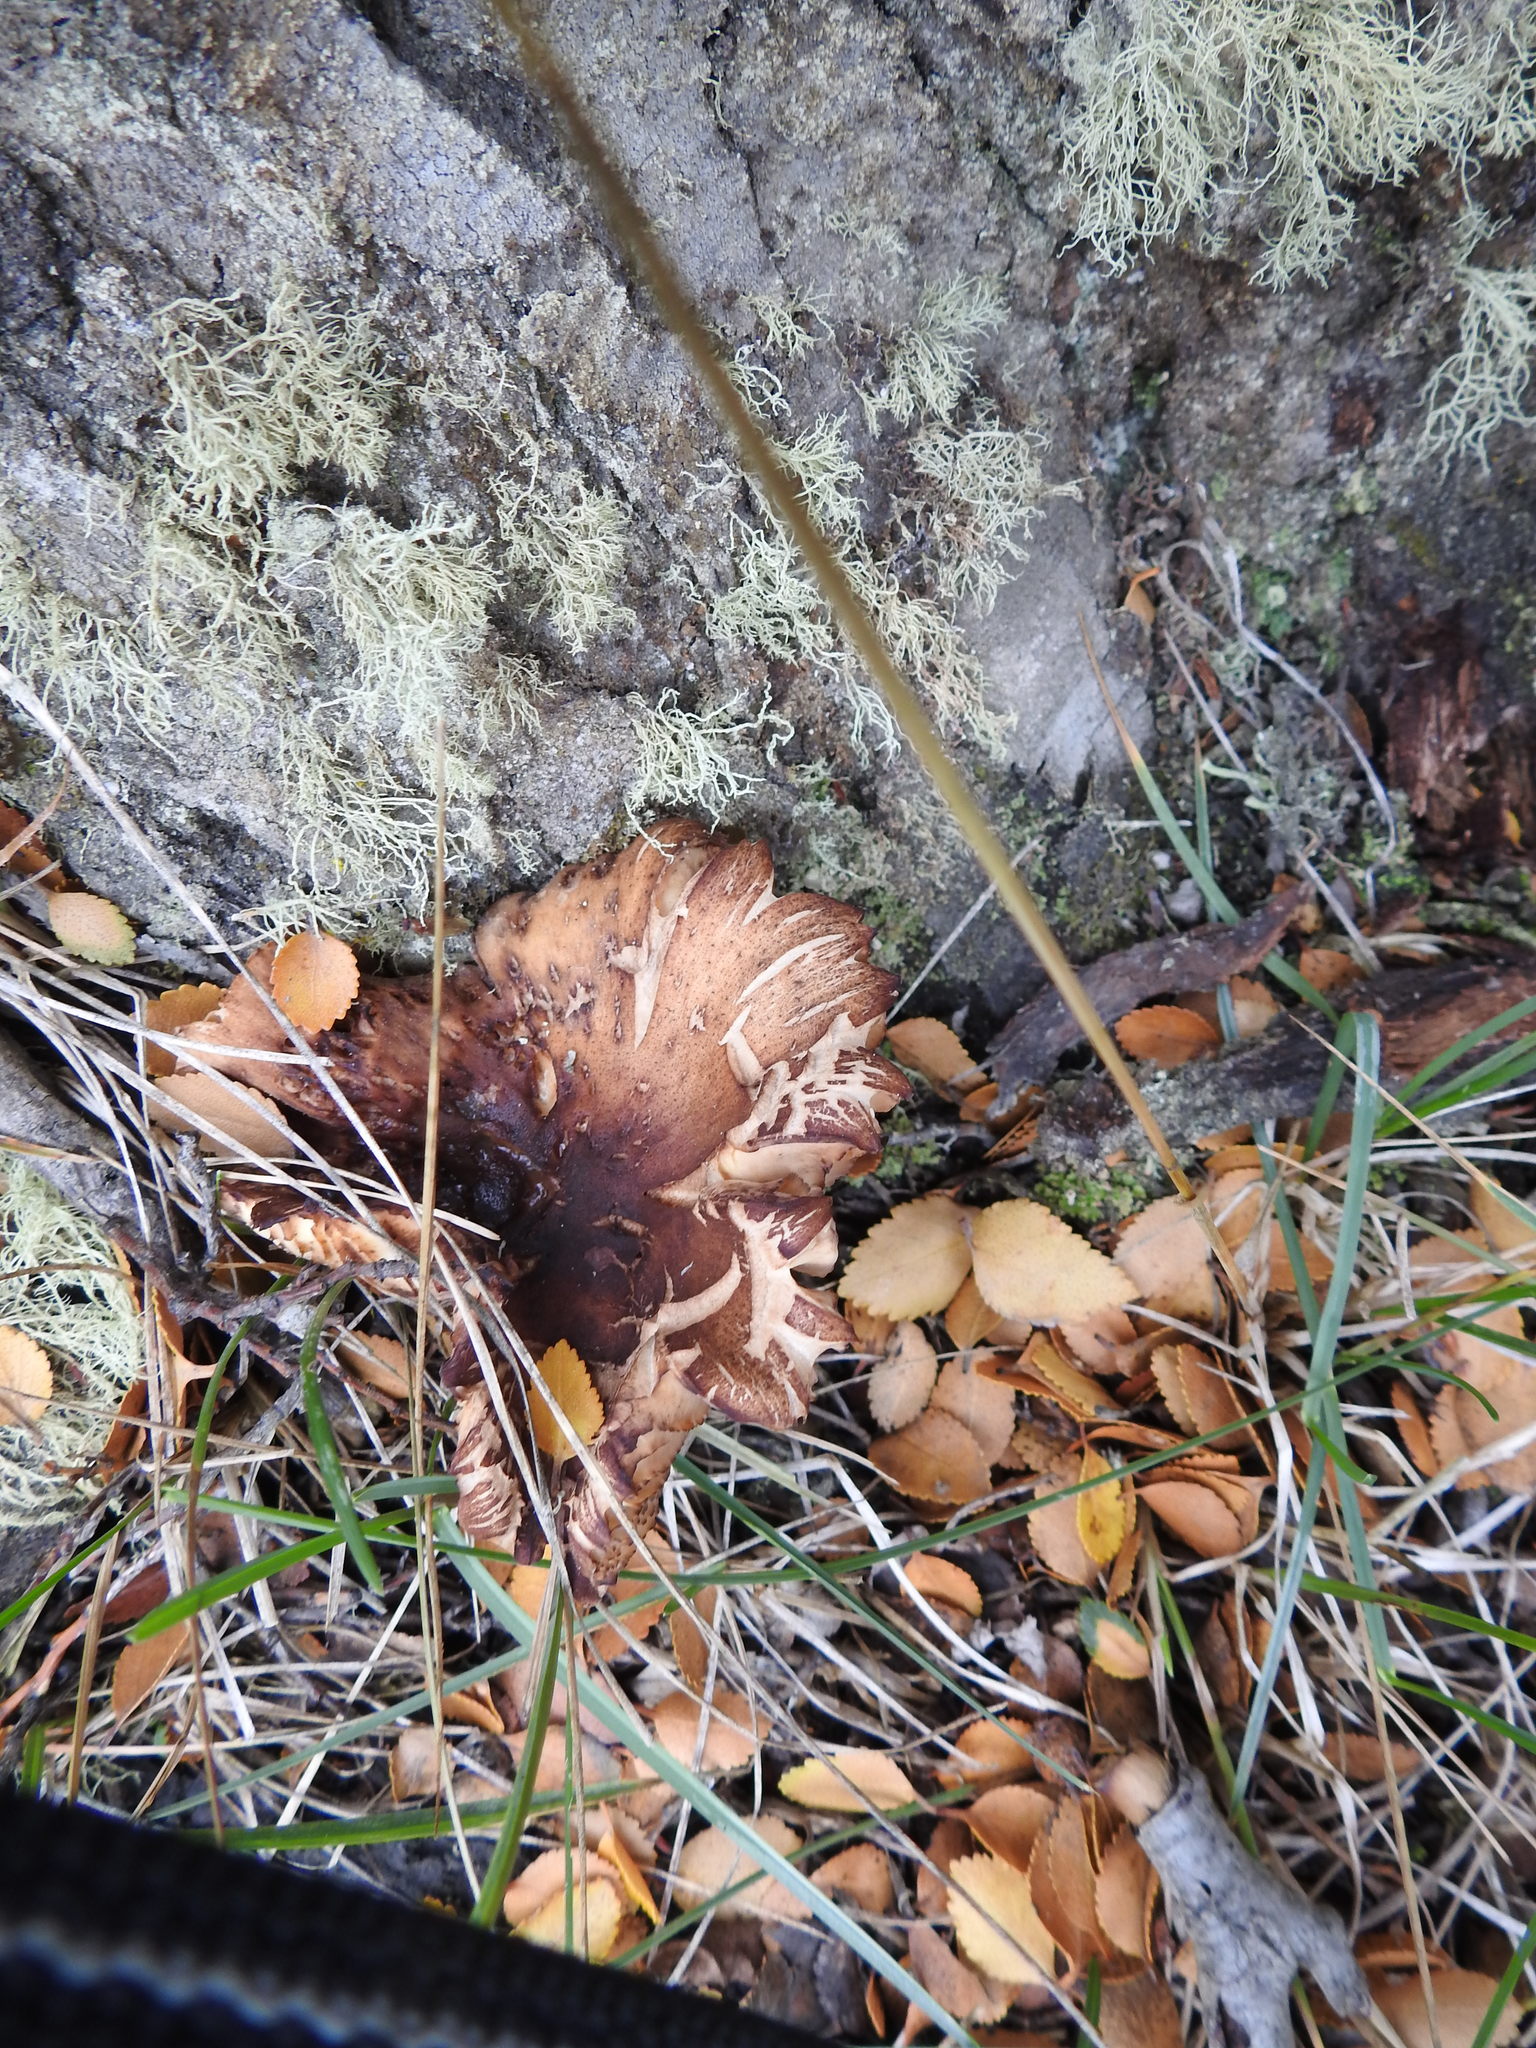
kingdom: Fungi
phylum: Basidiomycota
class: Agaricomycetes
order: Agaricales
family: Physalacriaceae
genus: Armillaria
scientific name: Armillaria mellea
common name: Honey fungus
